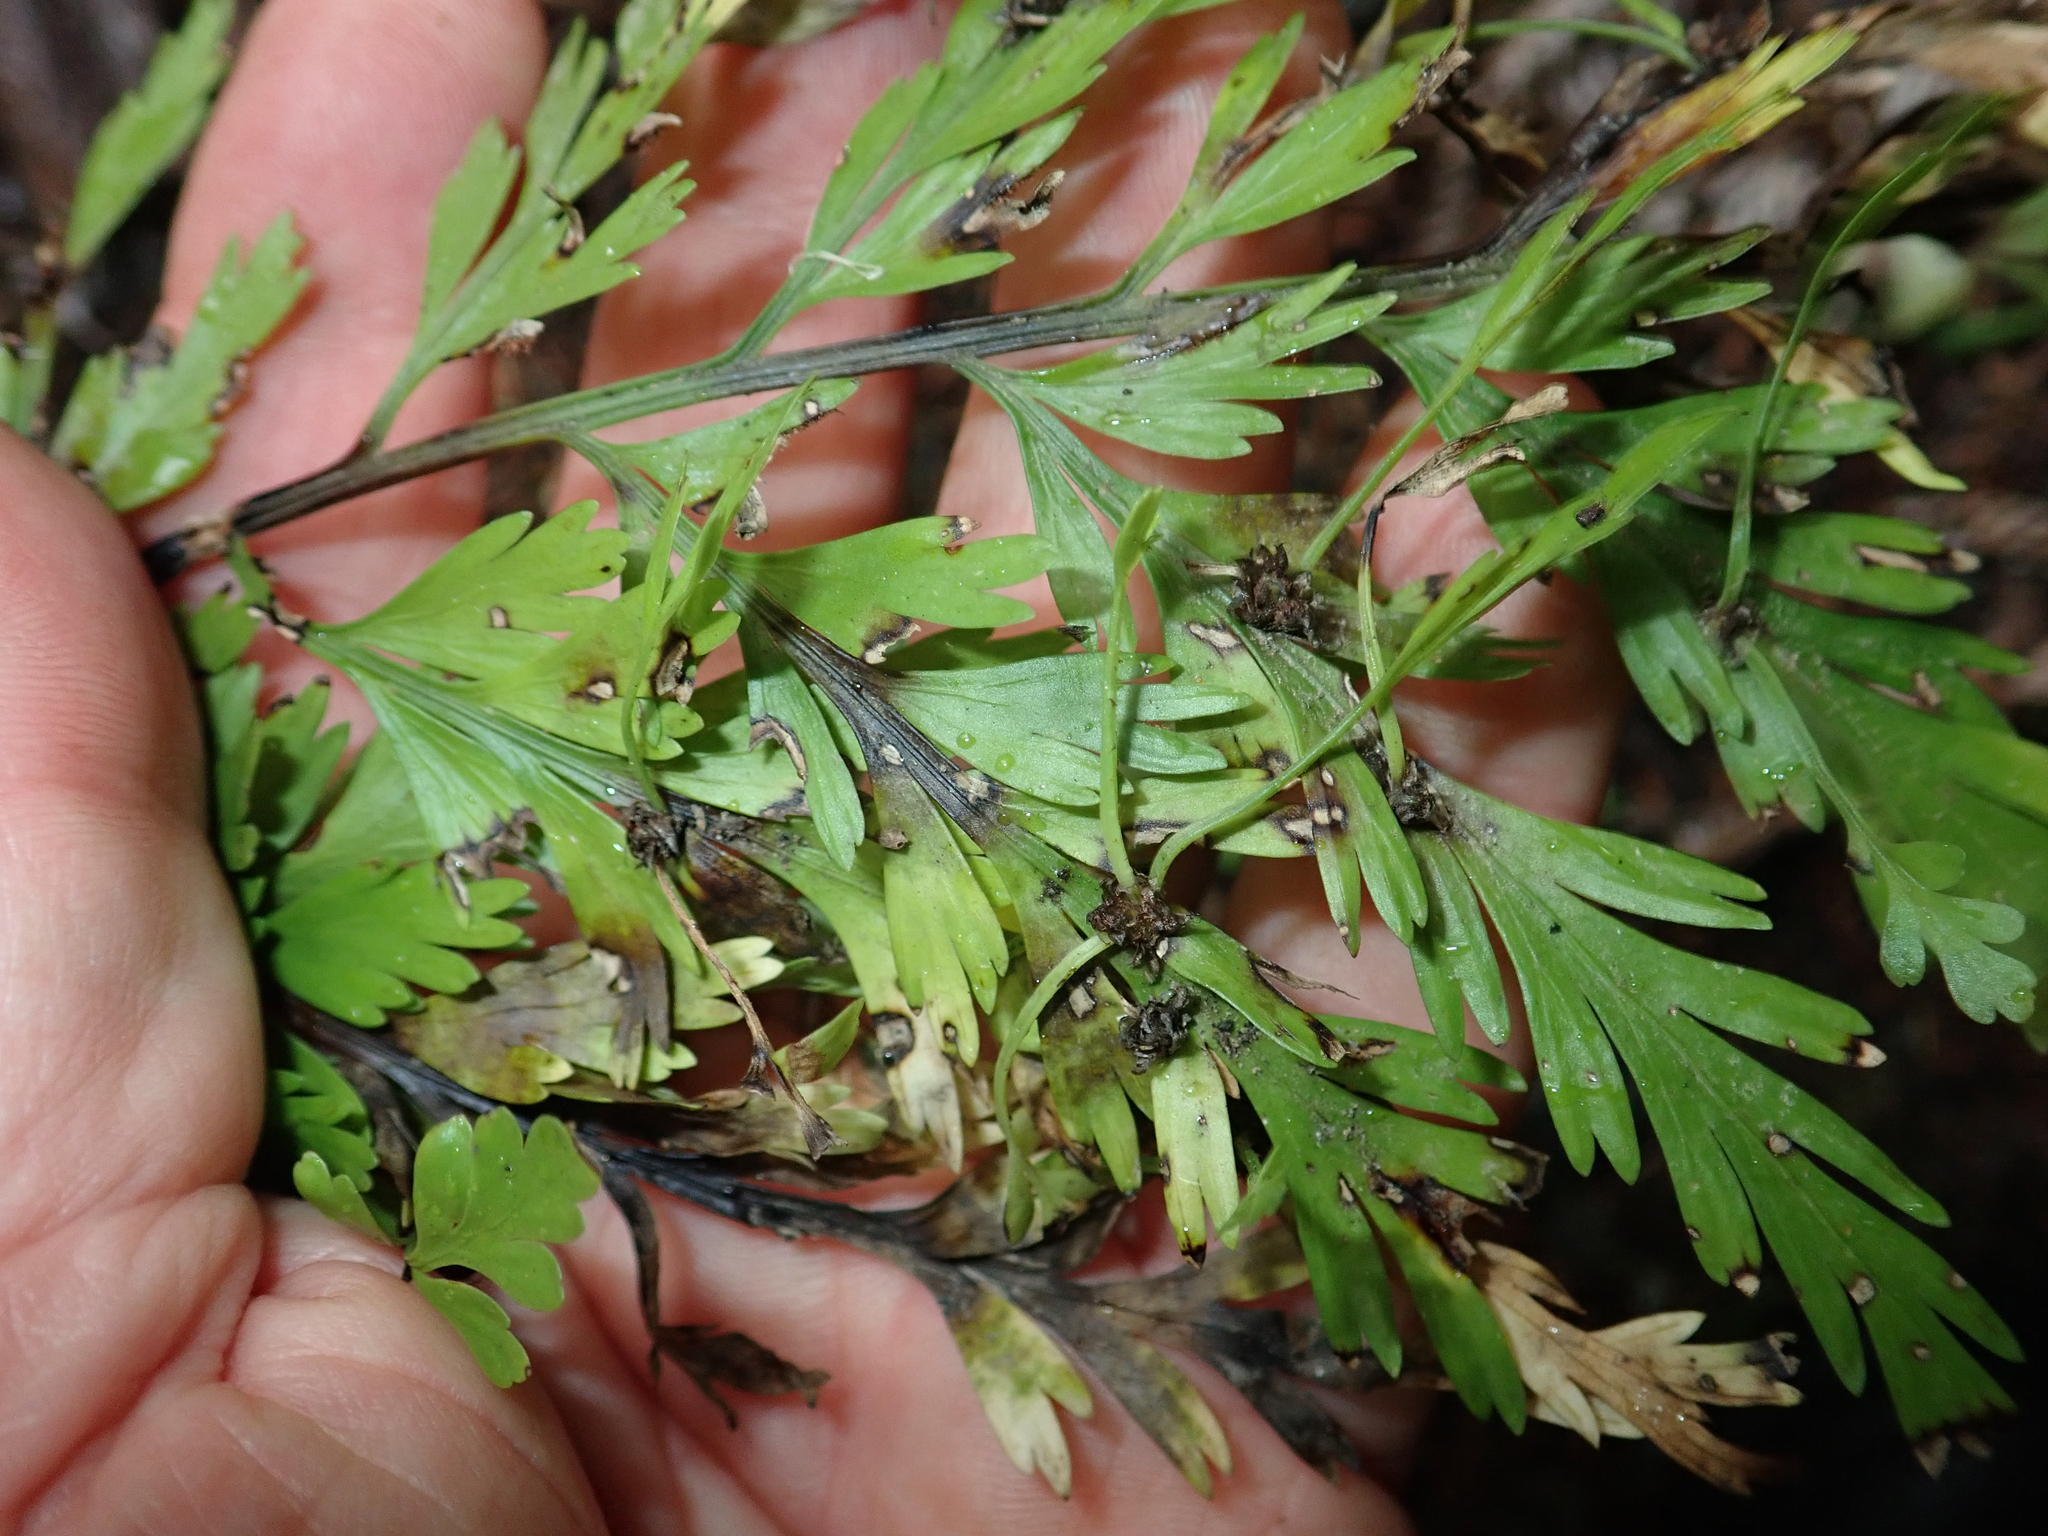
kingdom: Plantae
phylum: Tracheophyta
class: Polypodiopsida
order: Polypodiales
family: Aspleniaceae
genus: Asplenium
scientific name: Asplenium lucrosum
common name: False hen-and-chickens fern
